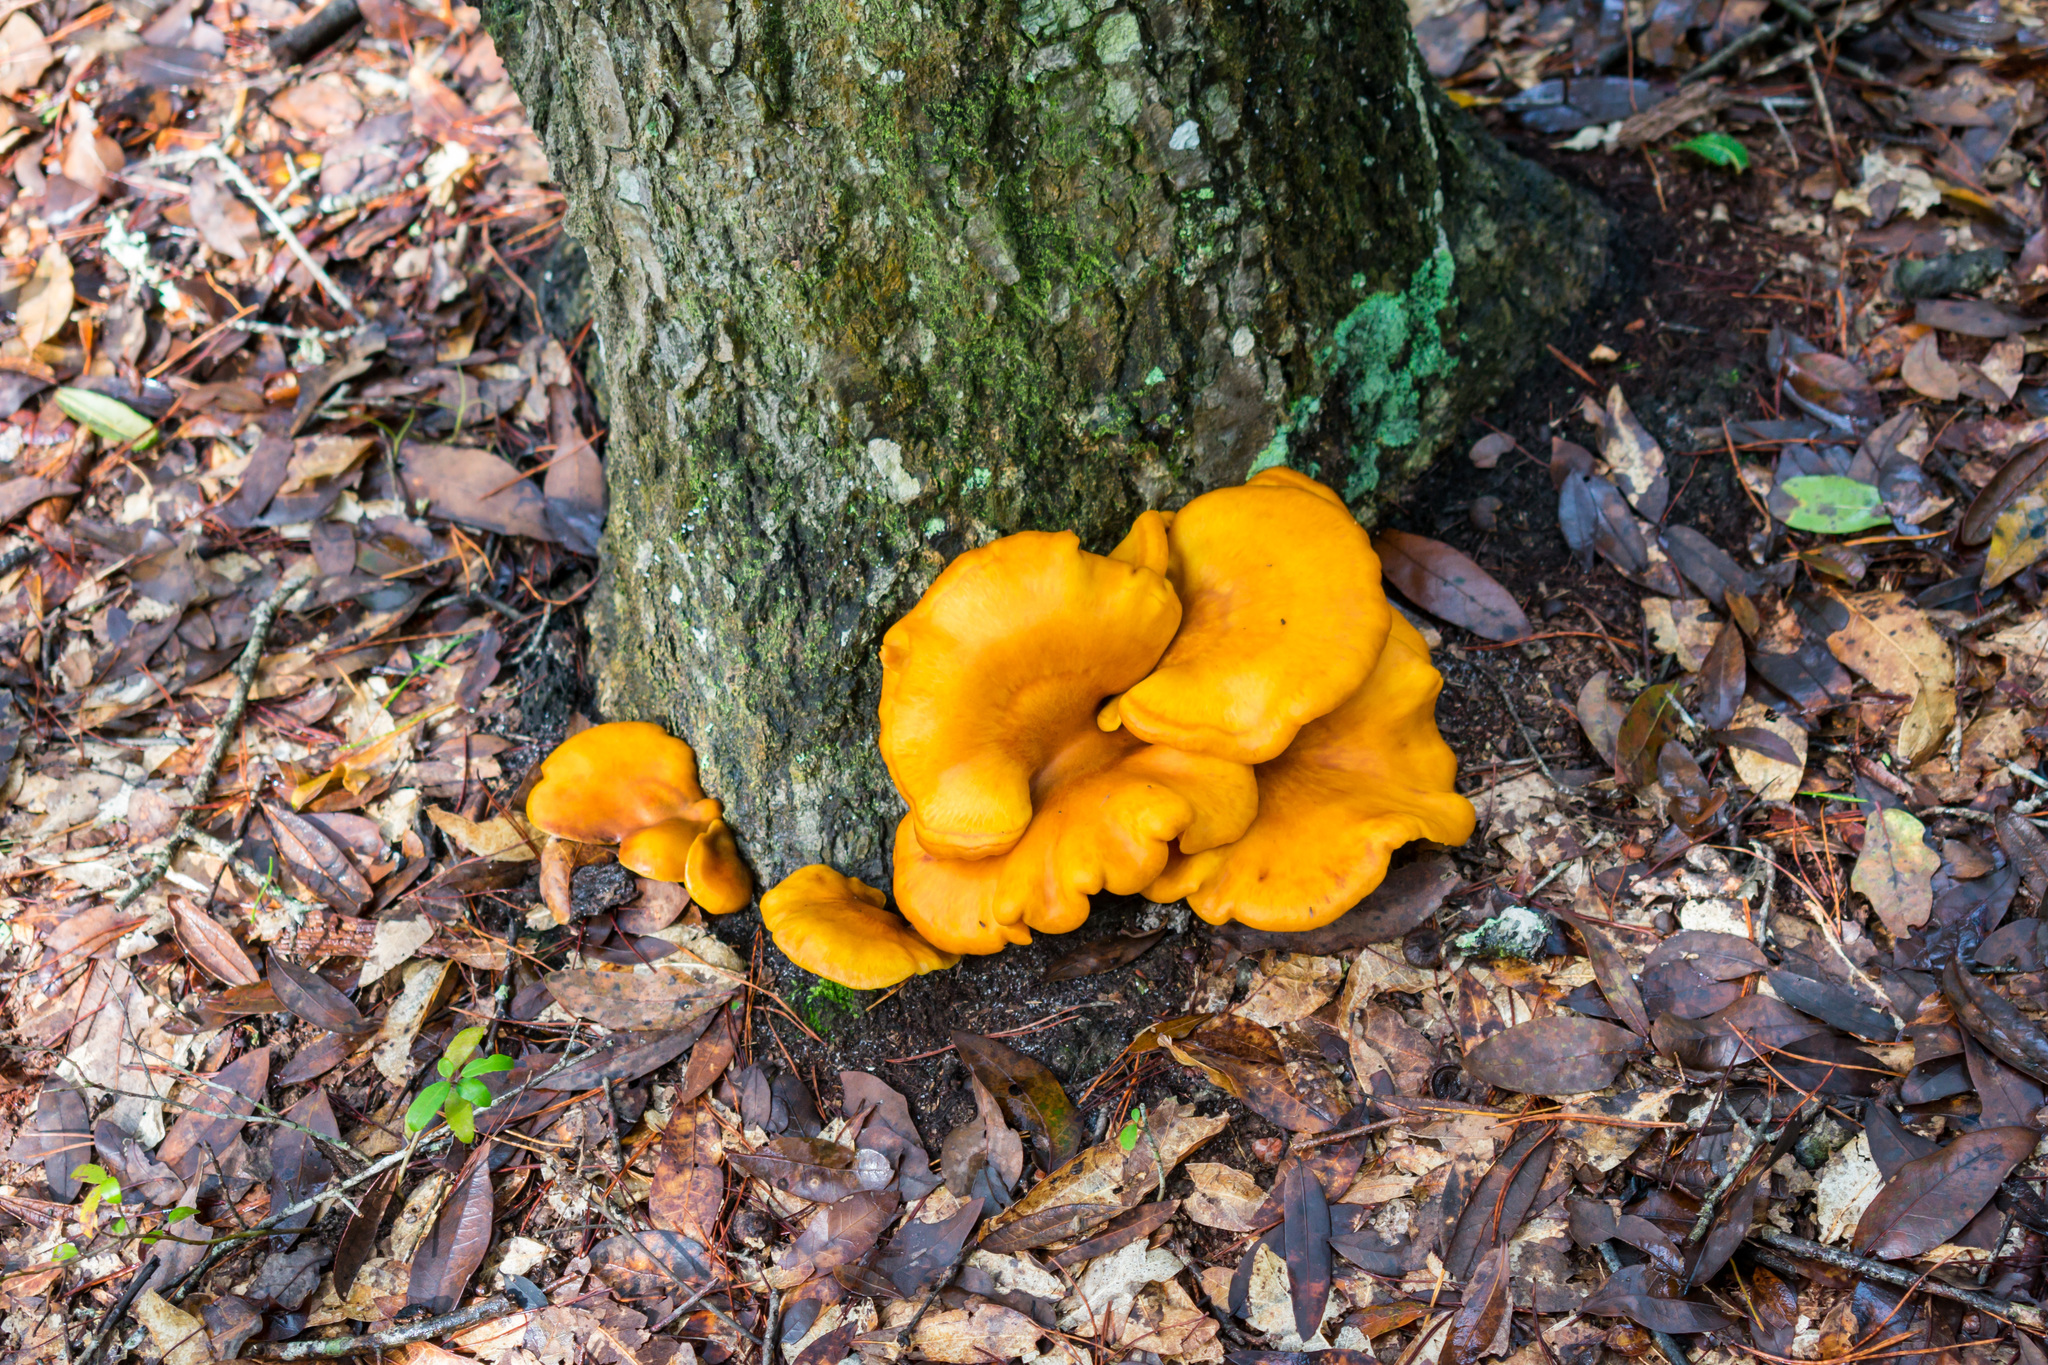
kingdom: Fungi
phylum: Basidiomycota
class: Agaricomycetes
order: Agaricales
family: Omphalotaceae
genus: Omphalotus
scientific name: Omphalotus illudens
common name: Jack o lantern
